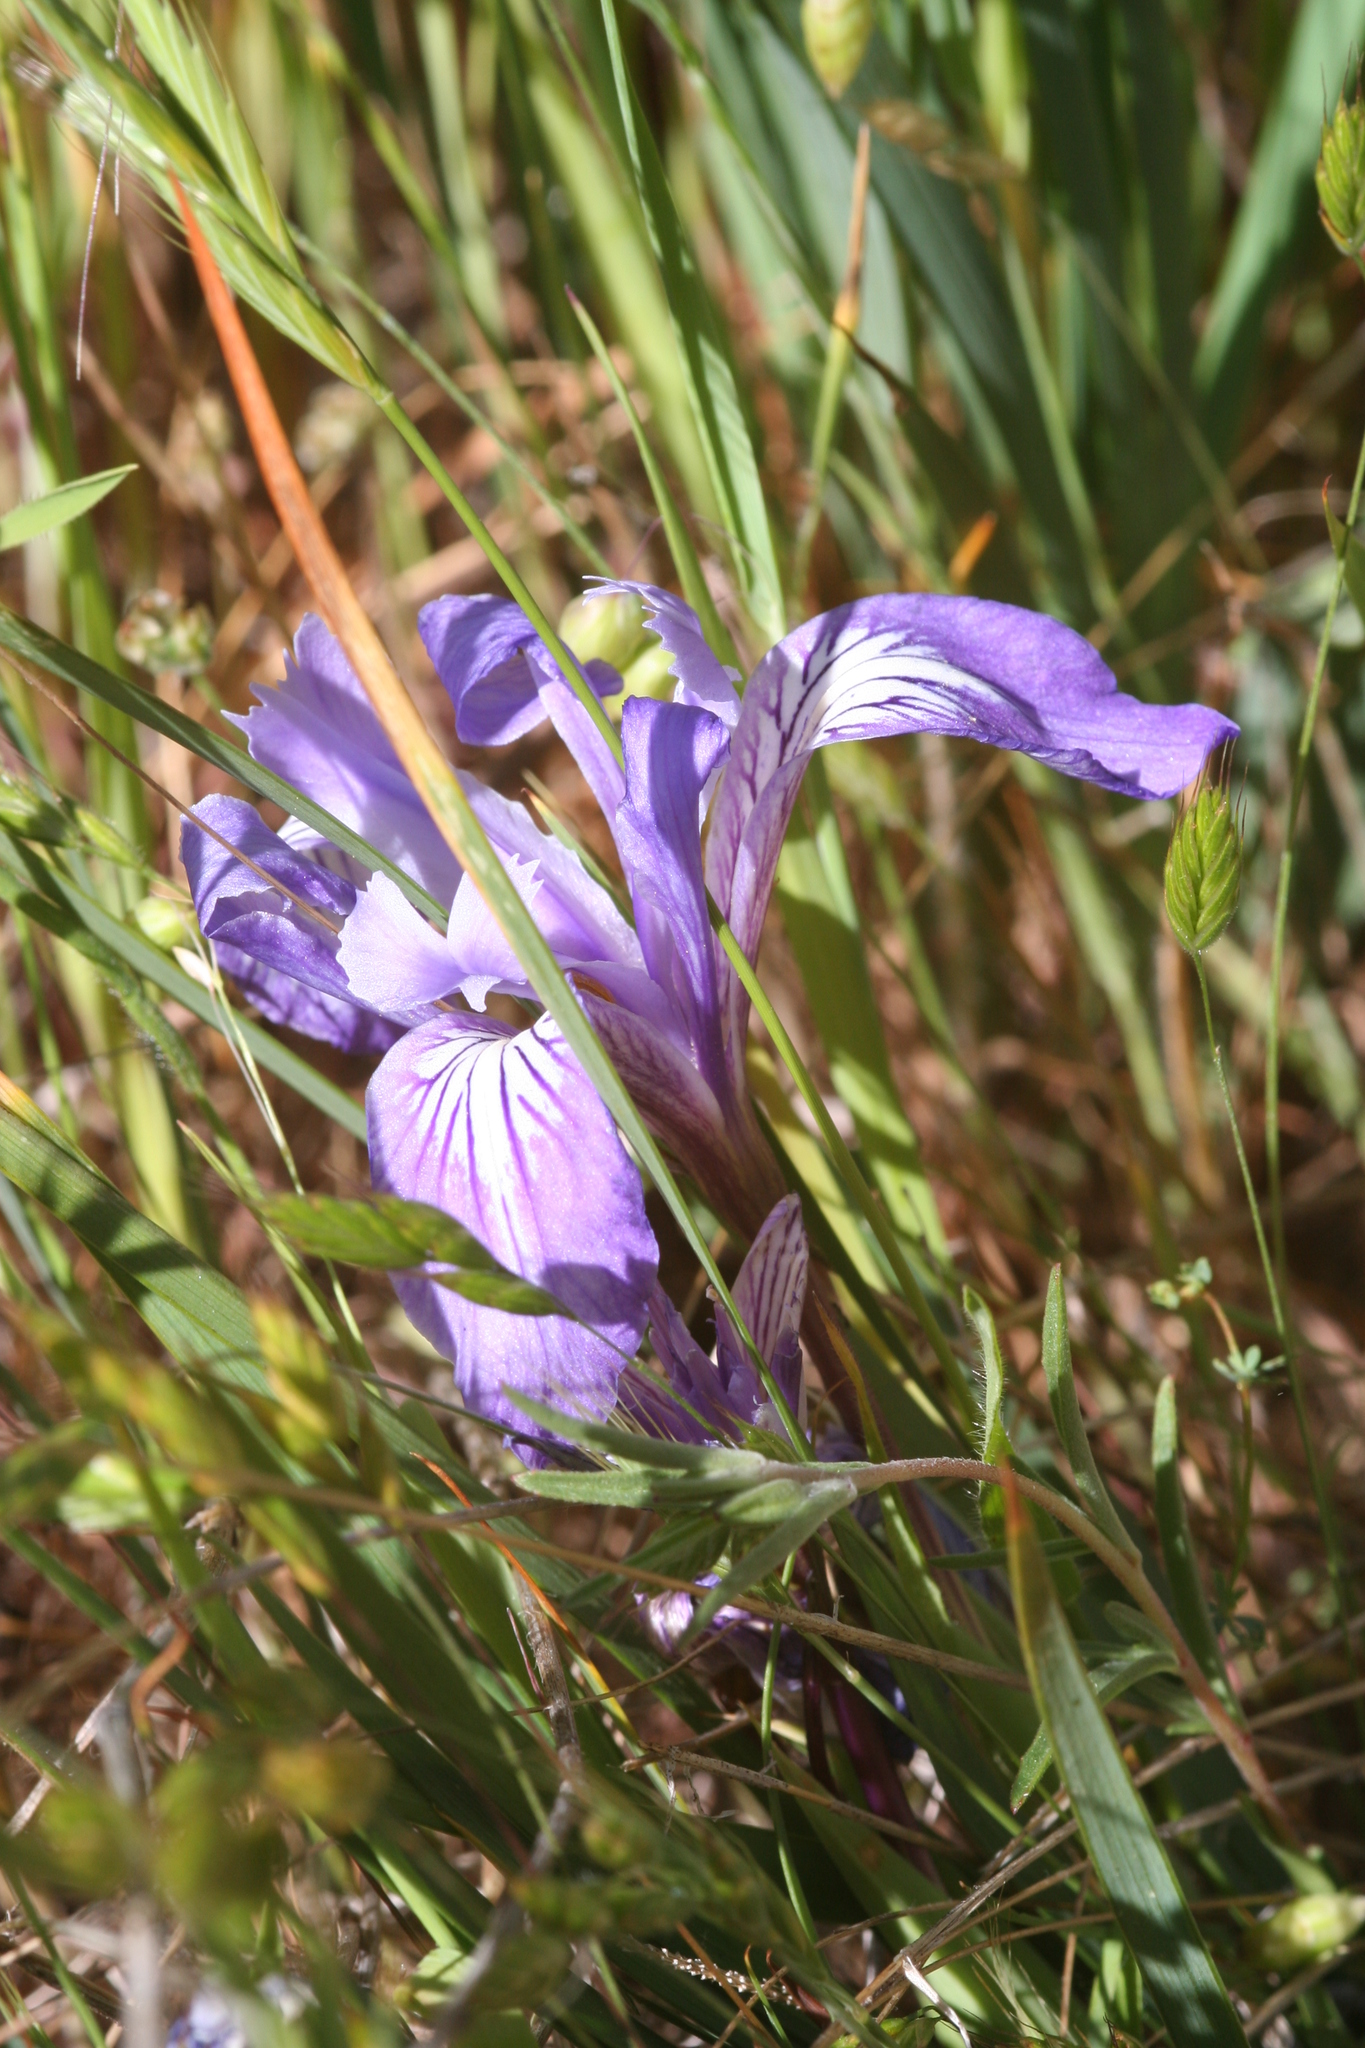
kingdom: Plantae
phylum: Tracheophyta
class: Liliopsida
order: Asparagales
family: Iridaceae
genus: Iris
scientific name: Iris macrosiphon
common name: Ground iris
